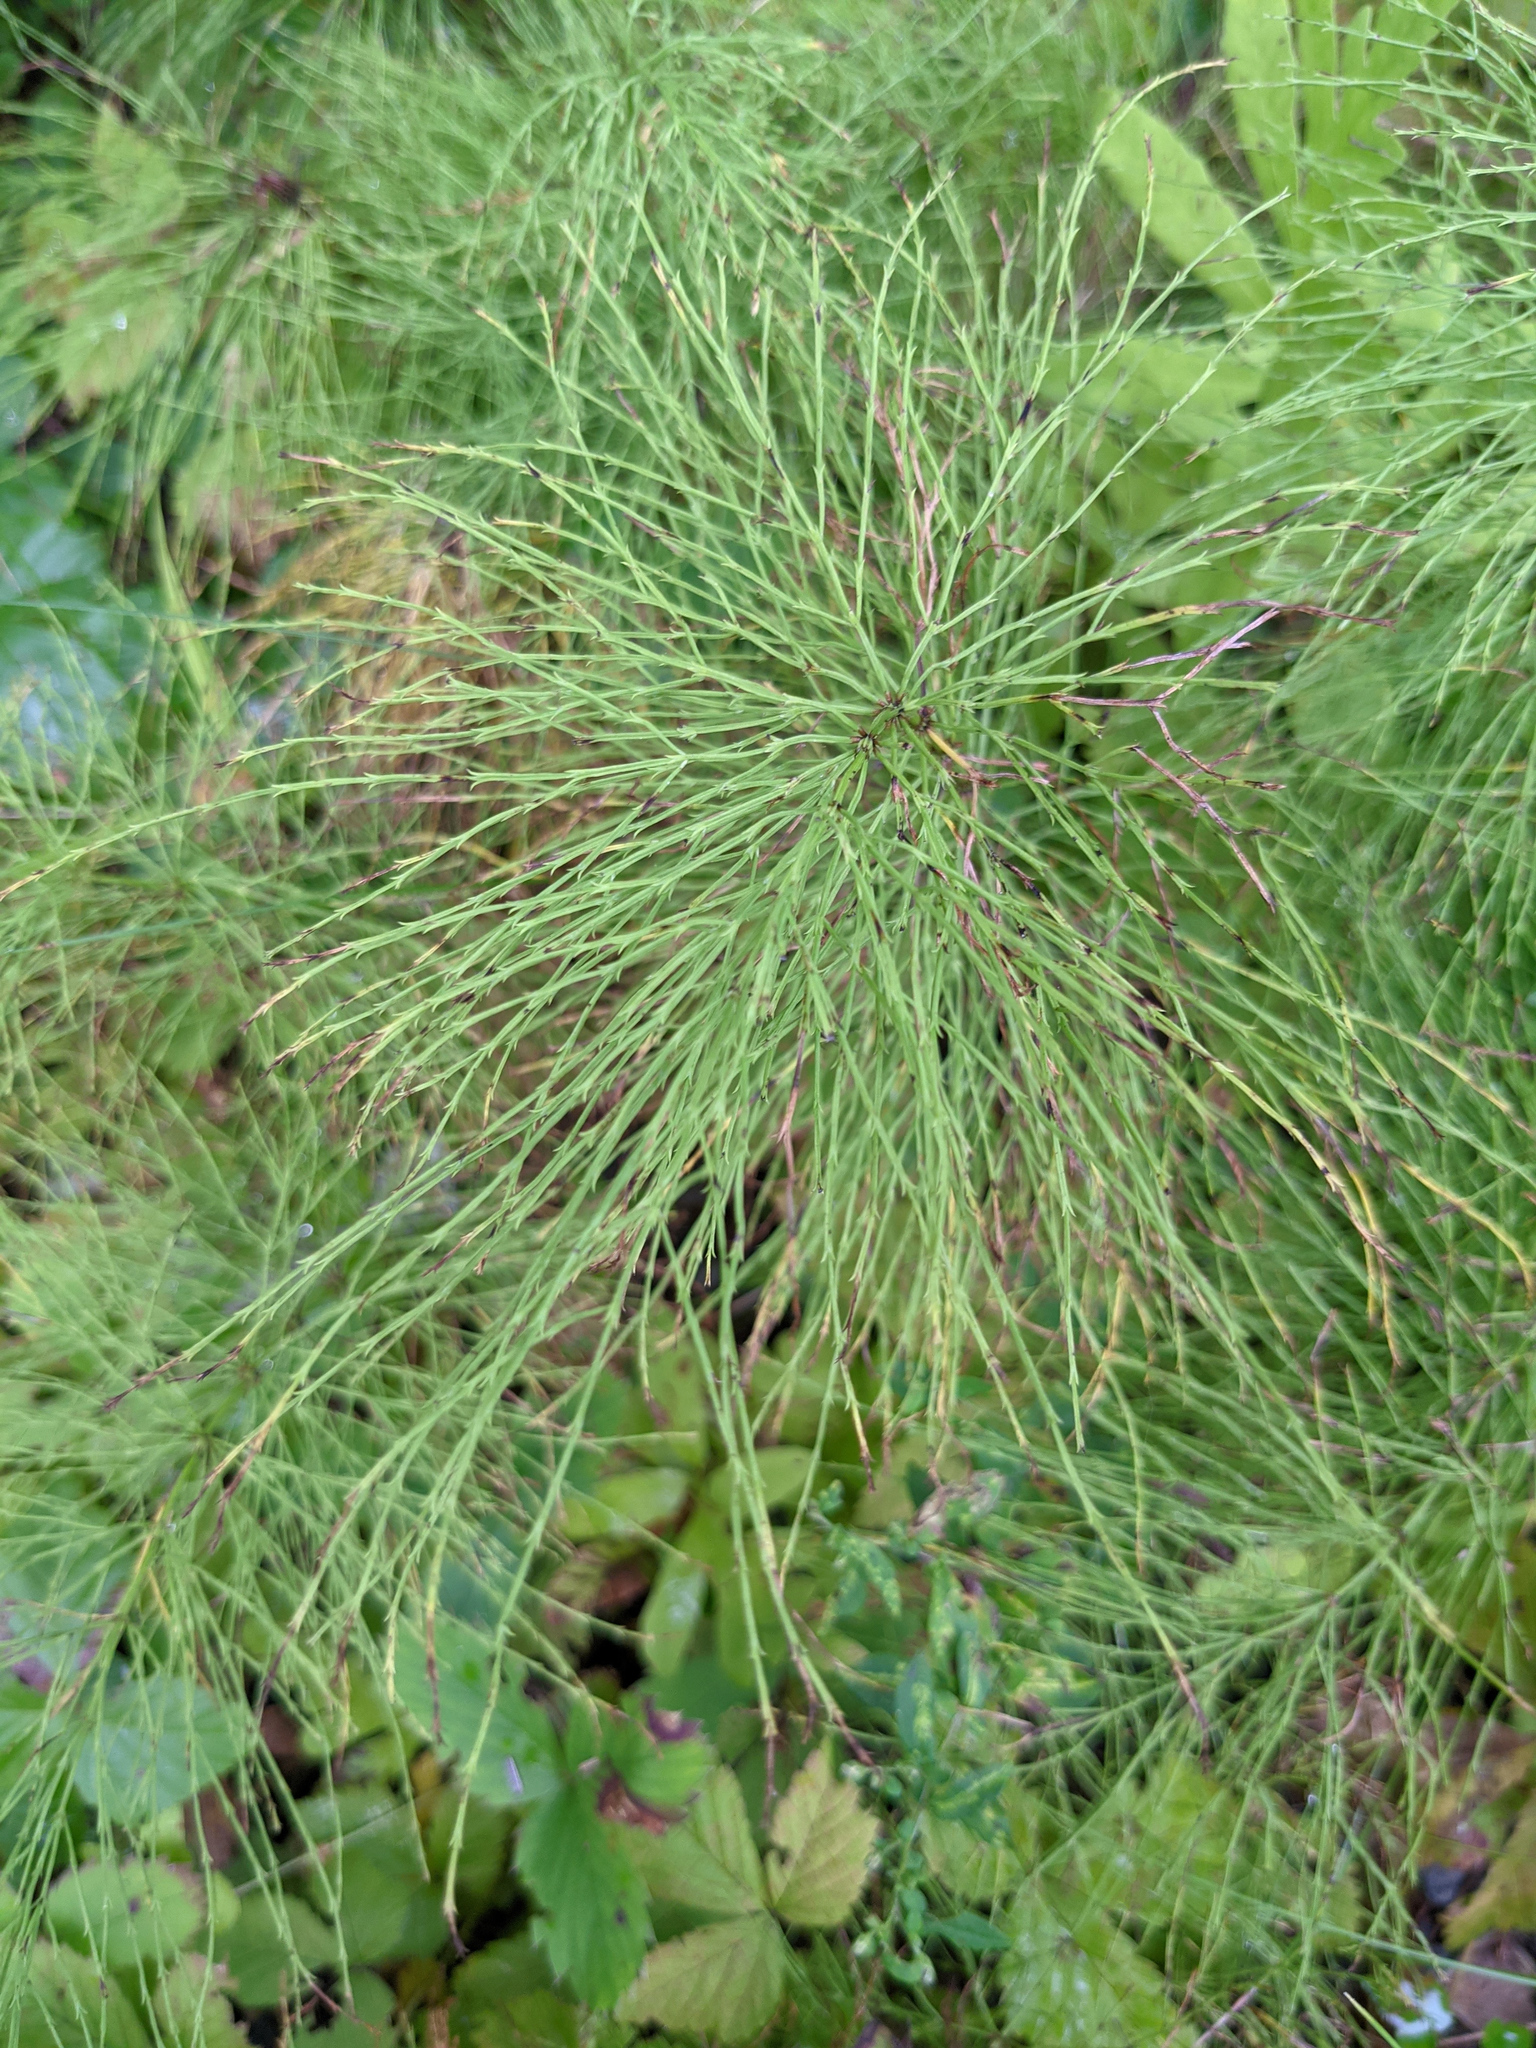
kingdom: Plantae
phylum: Tracheophyta
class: Polypodiopsida
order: Equisetales
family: Equisetaceae
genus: Equisetum
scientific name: Equisetum sylvaticum
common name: Wood horsetail
